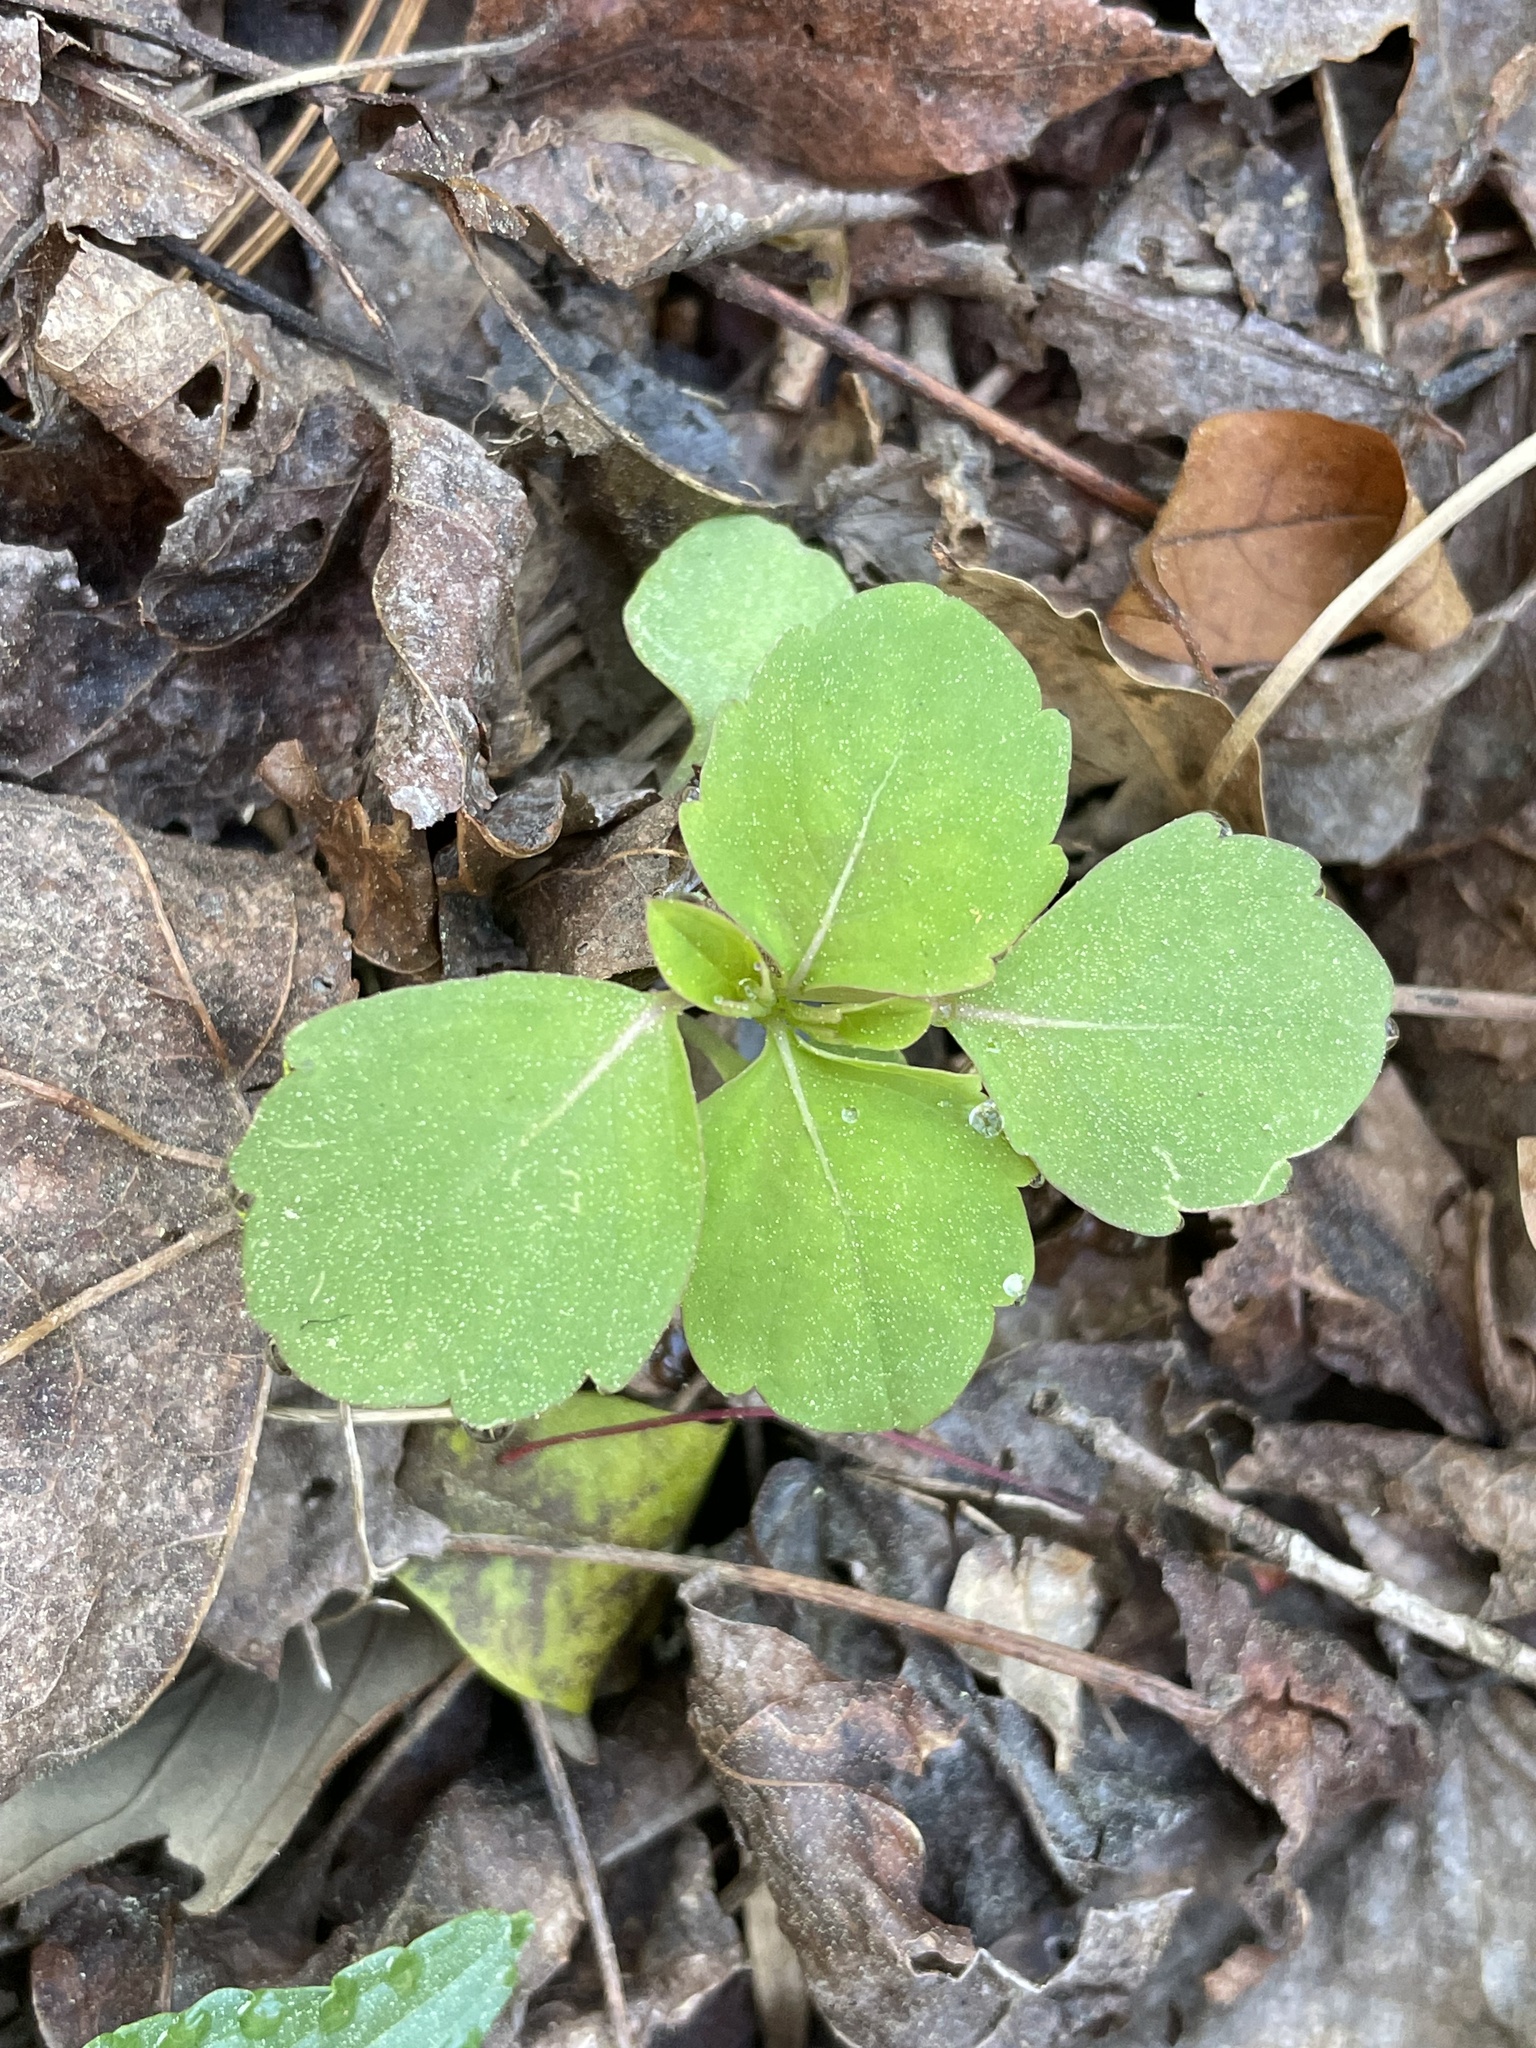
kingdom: Plantae
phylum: Tracheophyta
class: Magnoliopsida
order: Ericales
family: Balsaminaceae
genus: Impatiens
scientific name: Impatiens capensis
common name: Orange balsam
